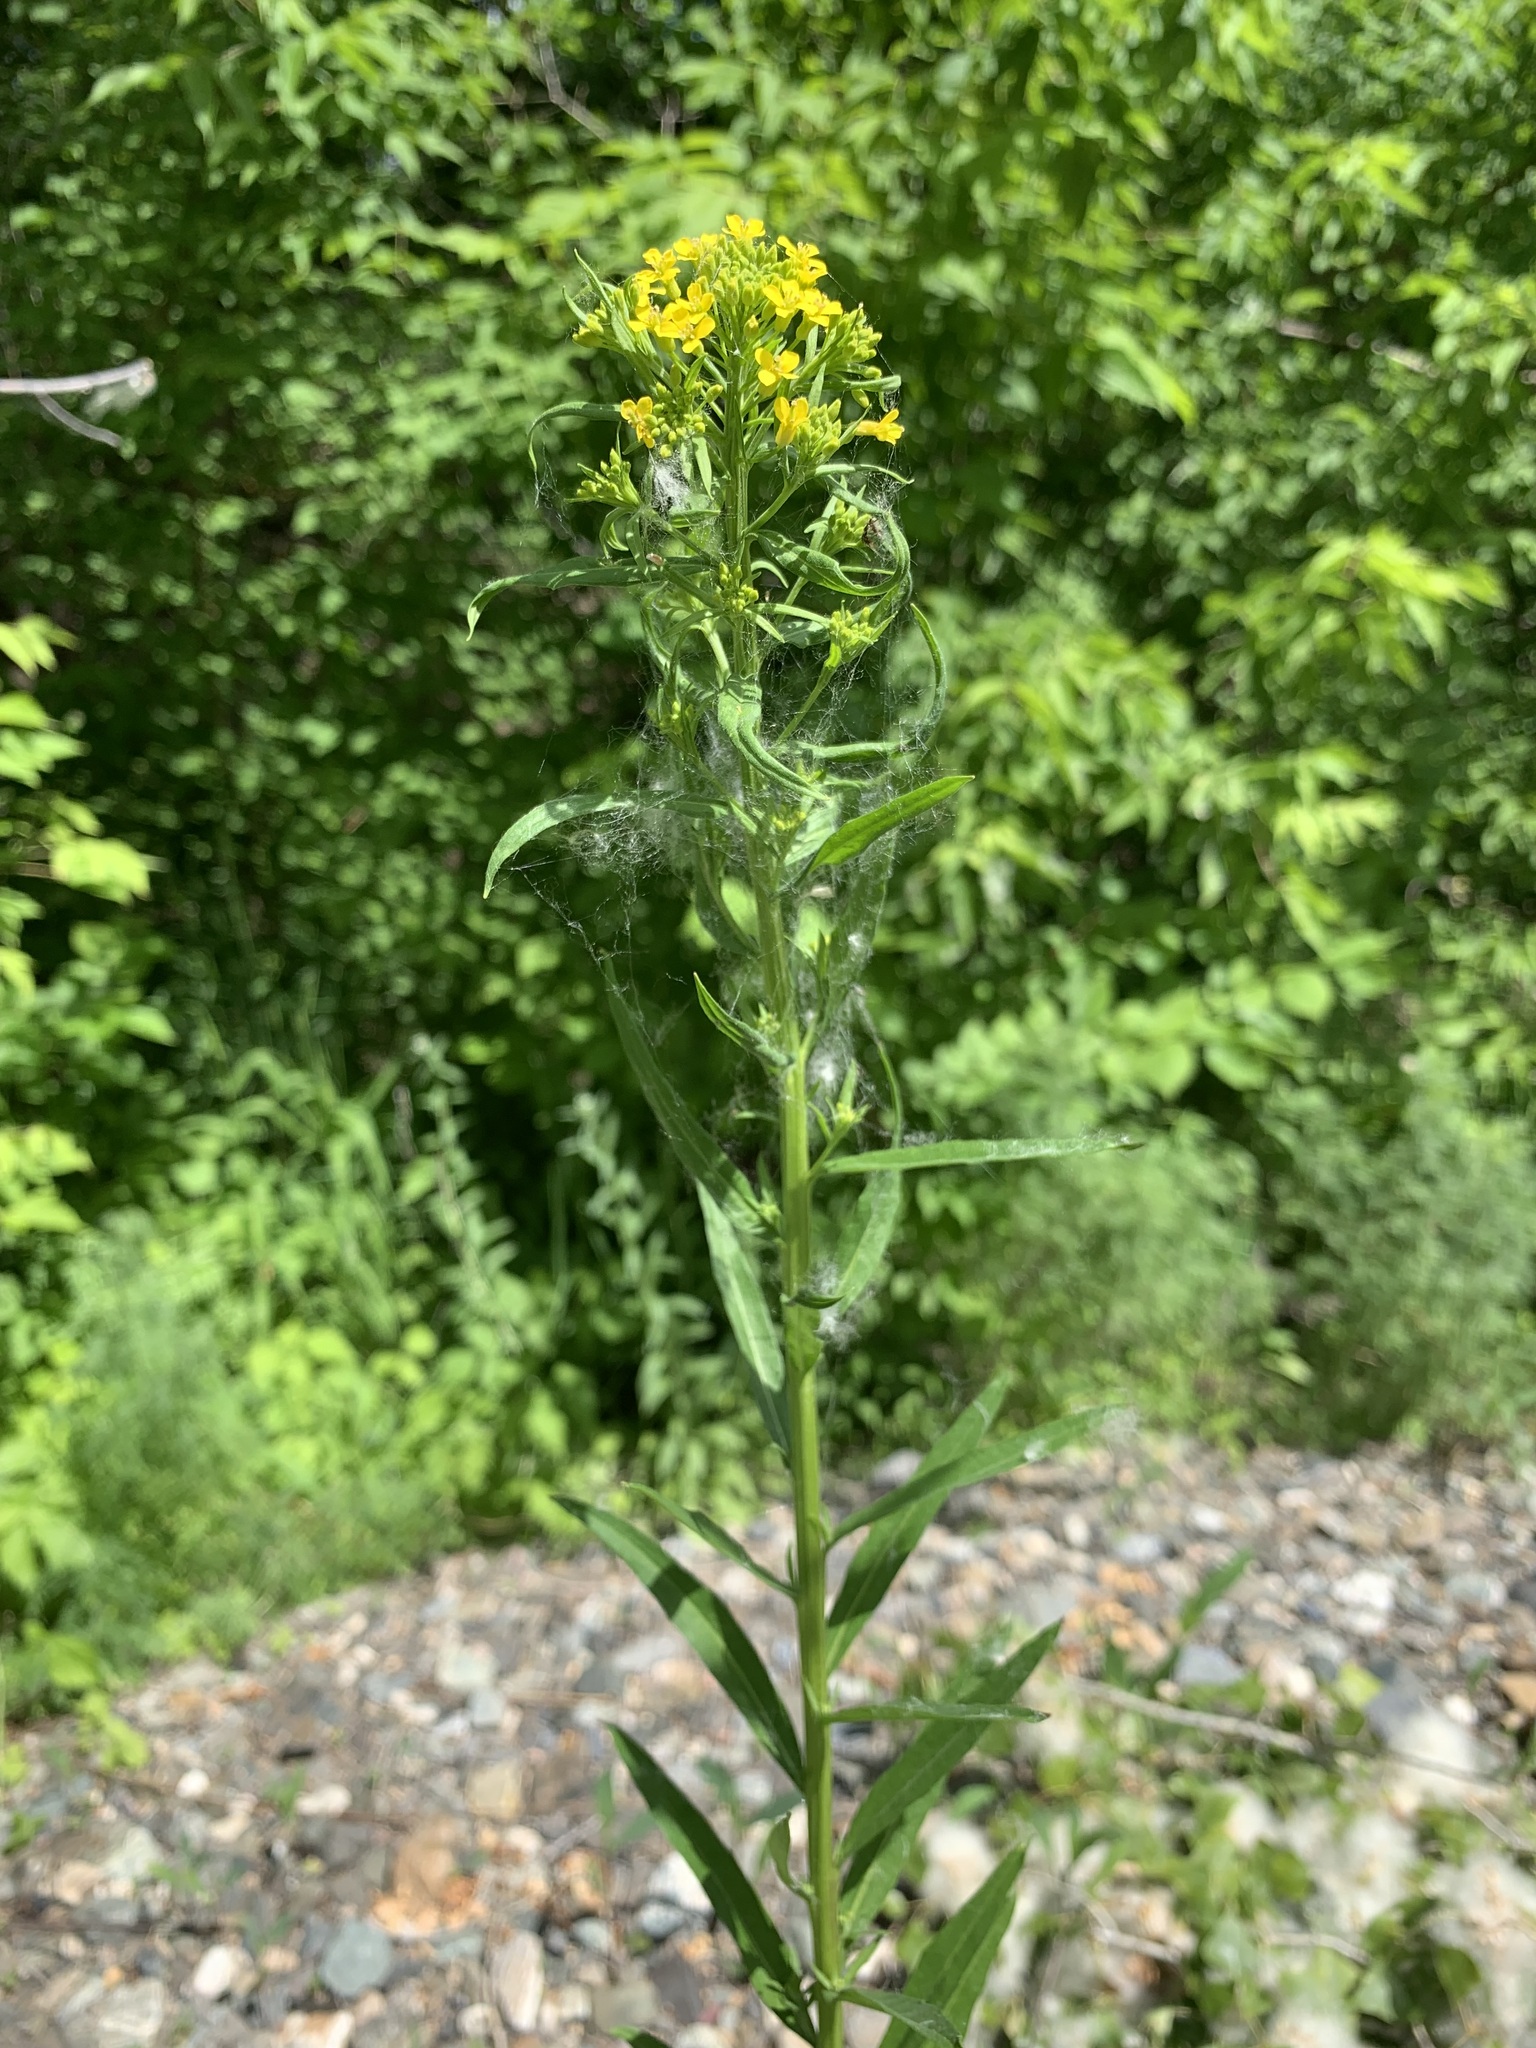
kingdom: Plantae
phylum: Tracheophyta
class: Magnoliopsida
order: Brassicales
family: Brassicaceae
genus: Erysimum
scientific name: Erysimum marschallianum
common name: Hard wallflower
